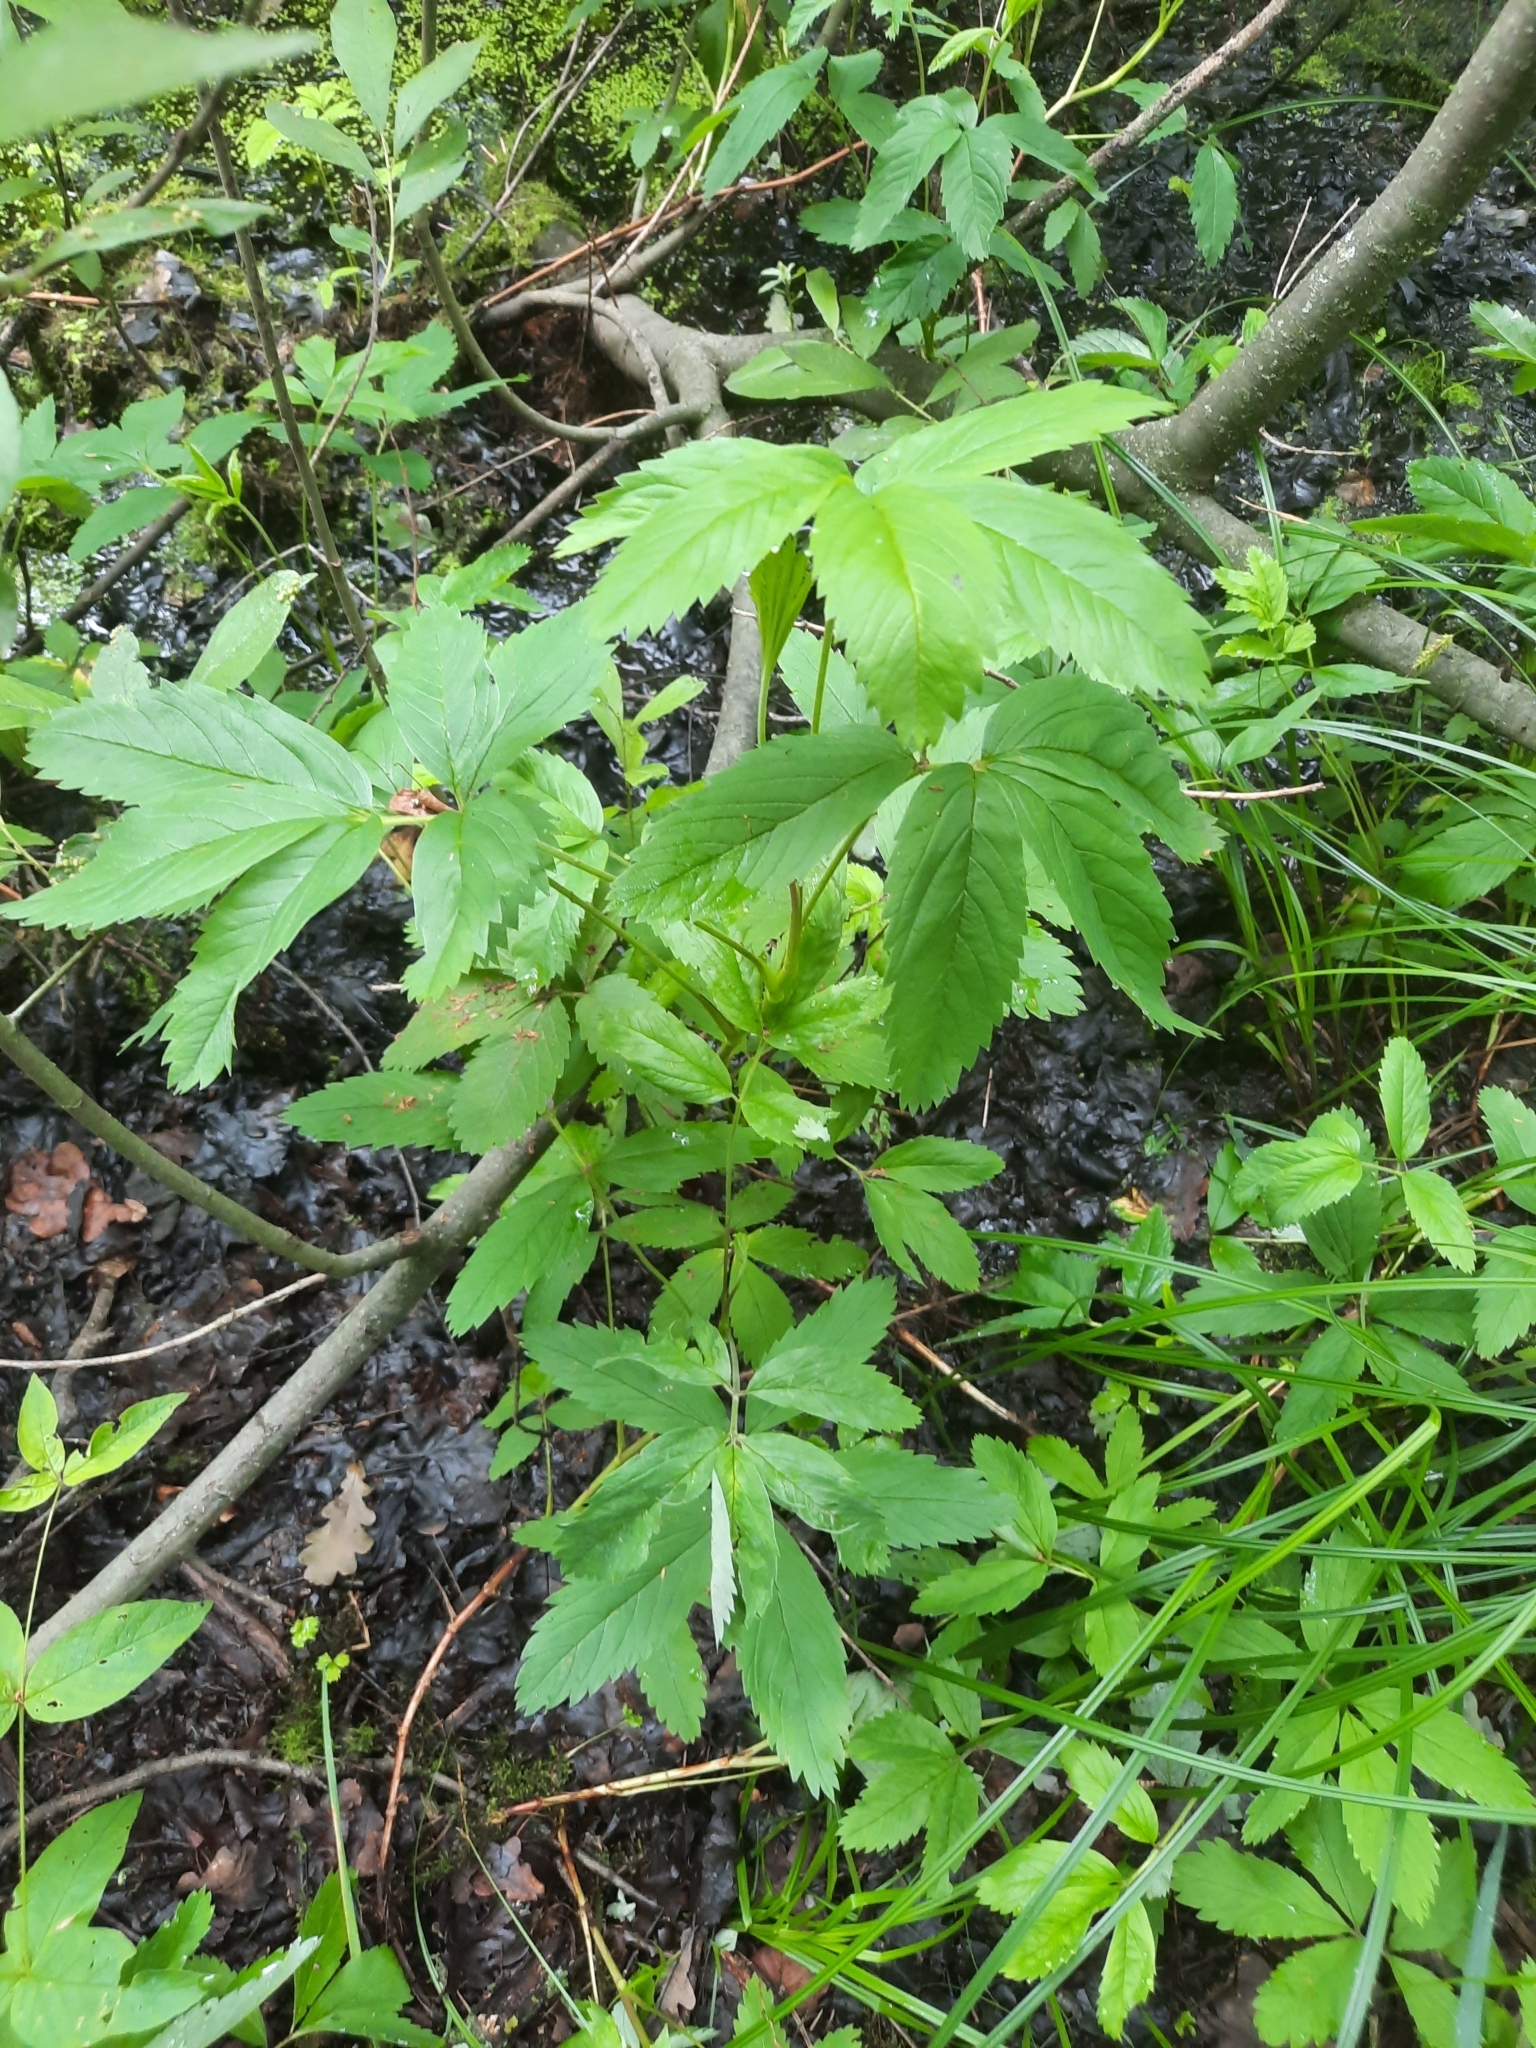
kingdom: Plantae
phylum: Tracheophyta
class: Magnoliopsida
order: Rosales
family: Rosaceae
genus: Comarum
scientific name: Comarum palustre
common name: Marsh cinquefoil
